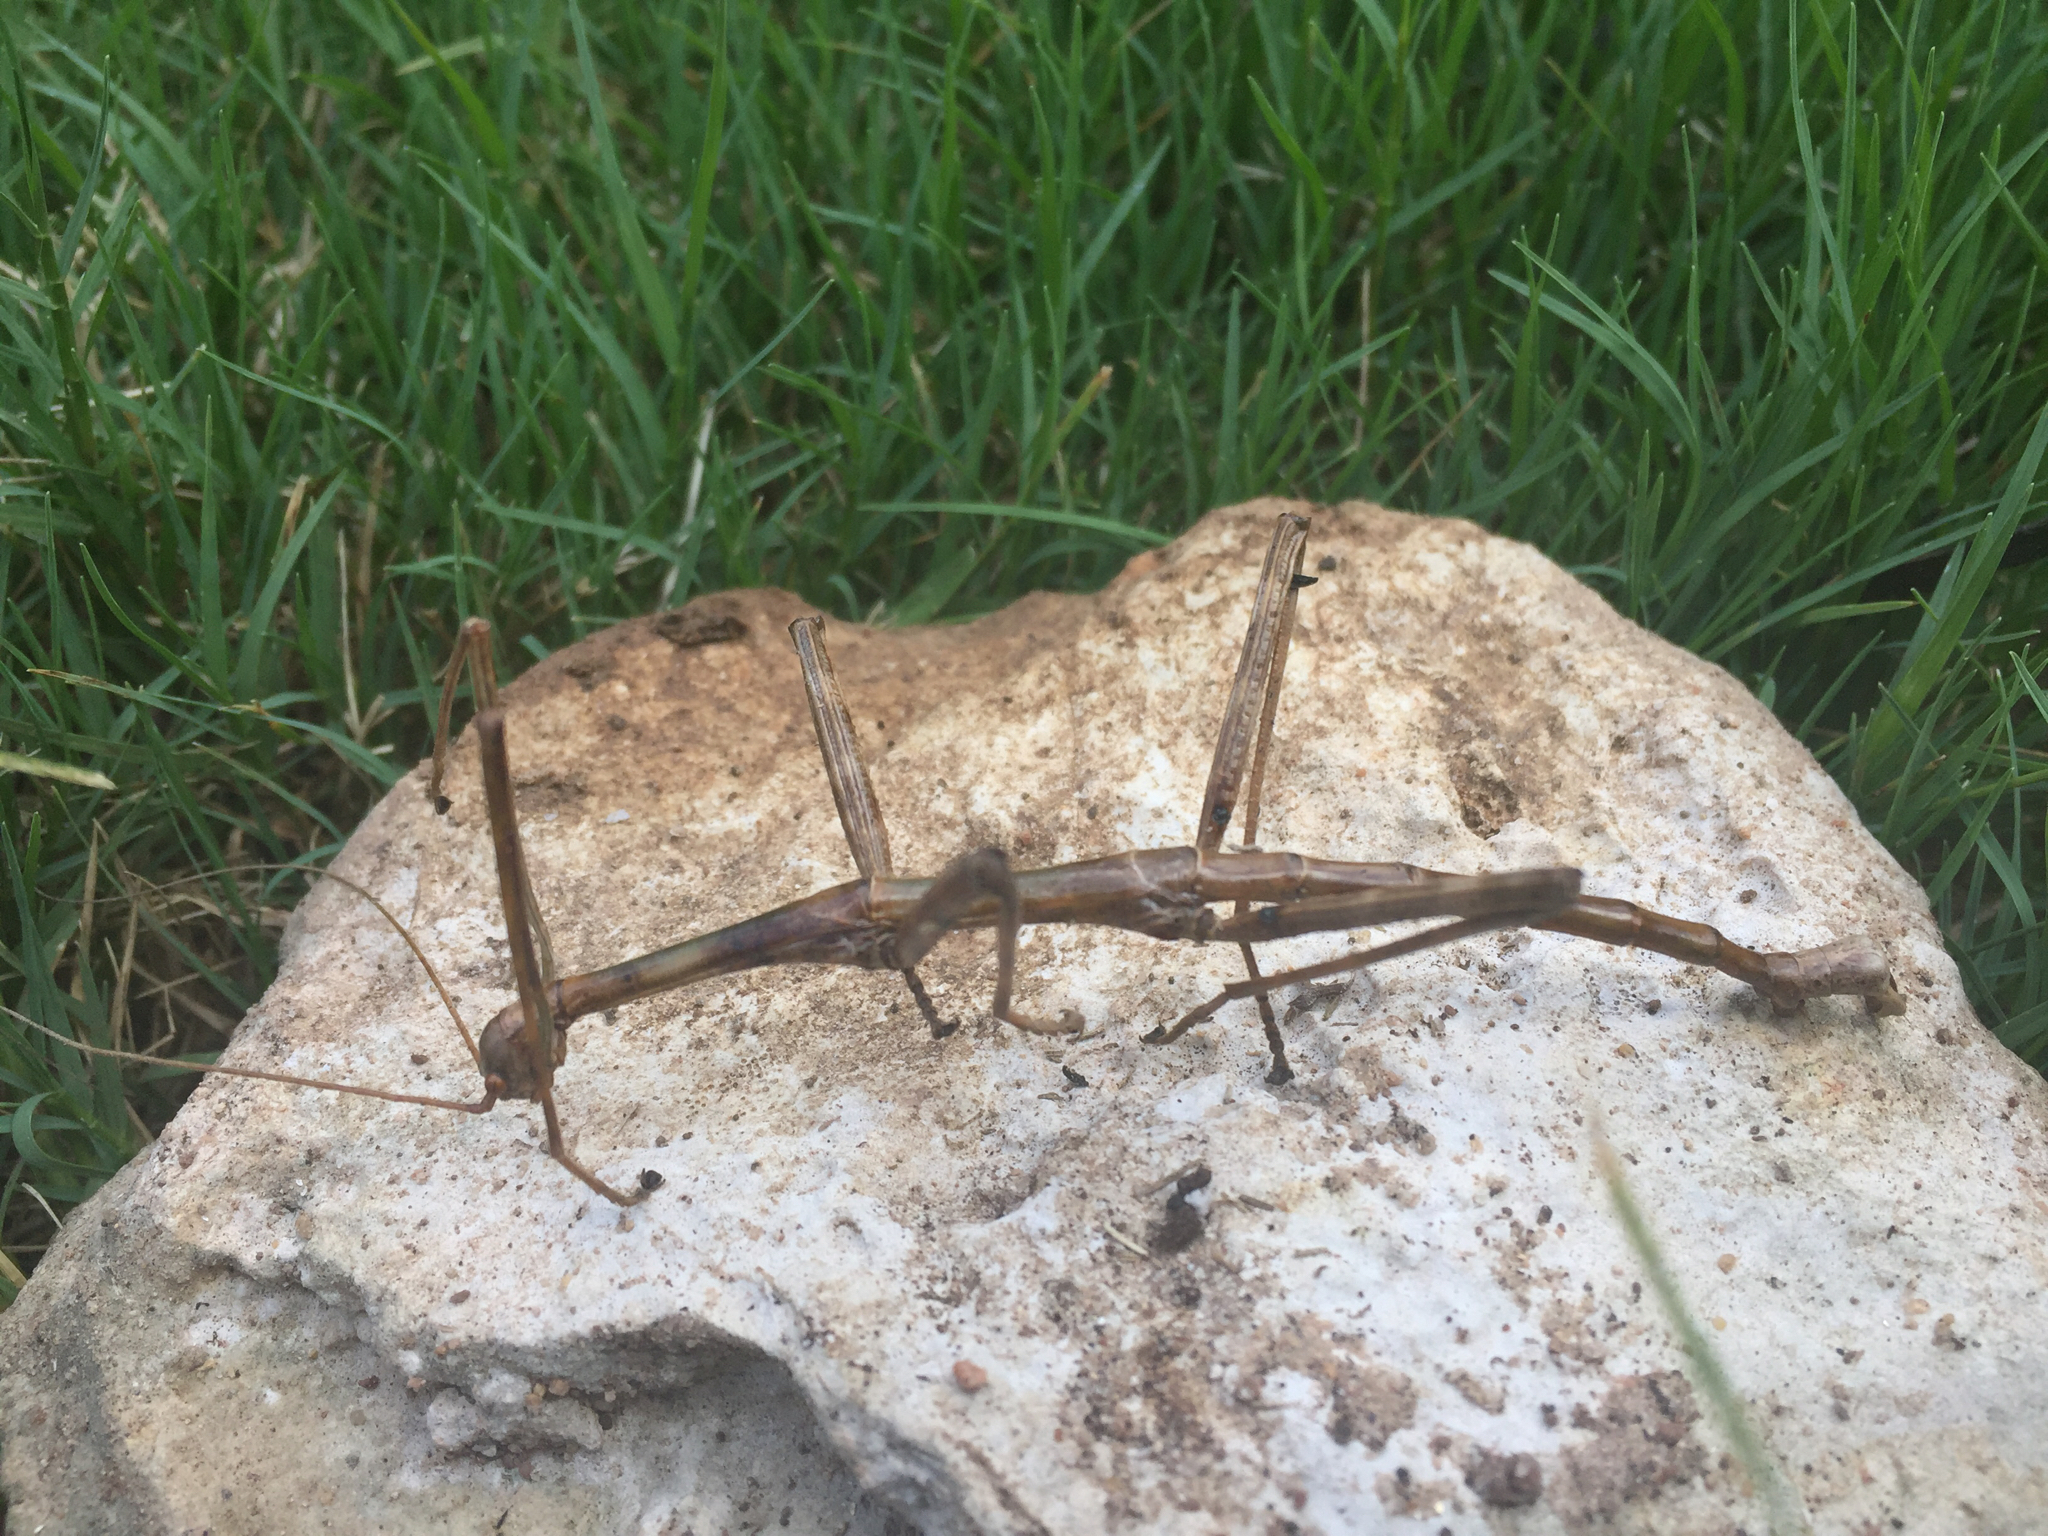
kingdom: Animalia
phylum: Arthropoda
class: Insecta
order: Phasmida
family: Diapheromeridae
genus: Megaphasma
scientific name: Megaphasma denticrus
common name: Giant walkingstick
